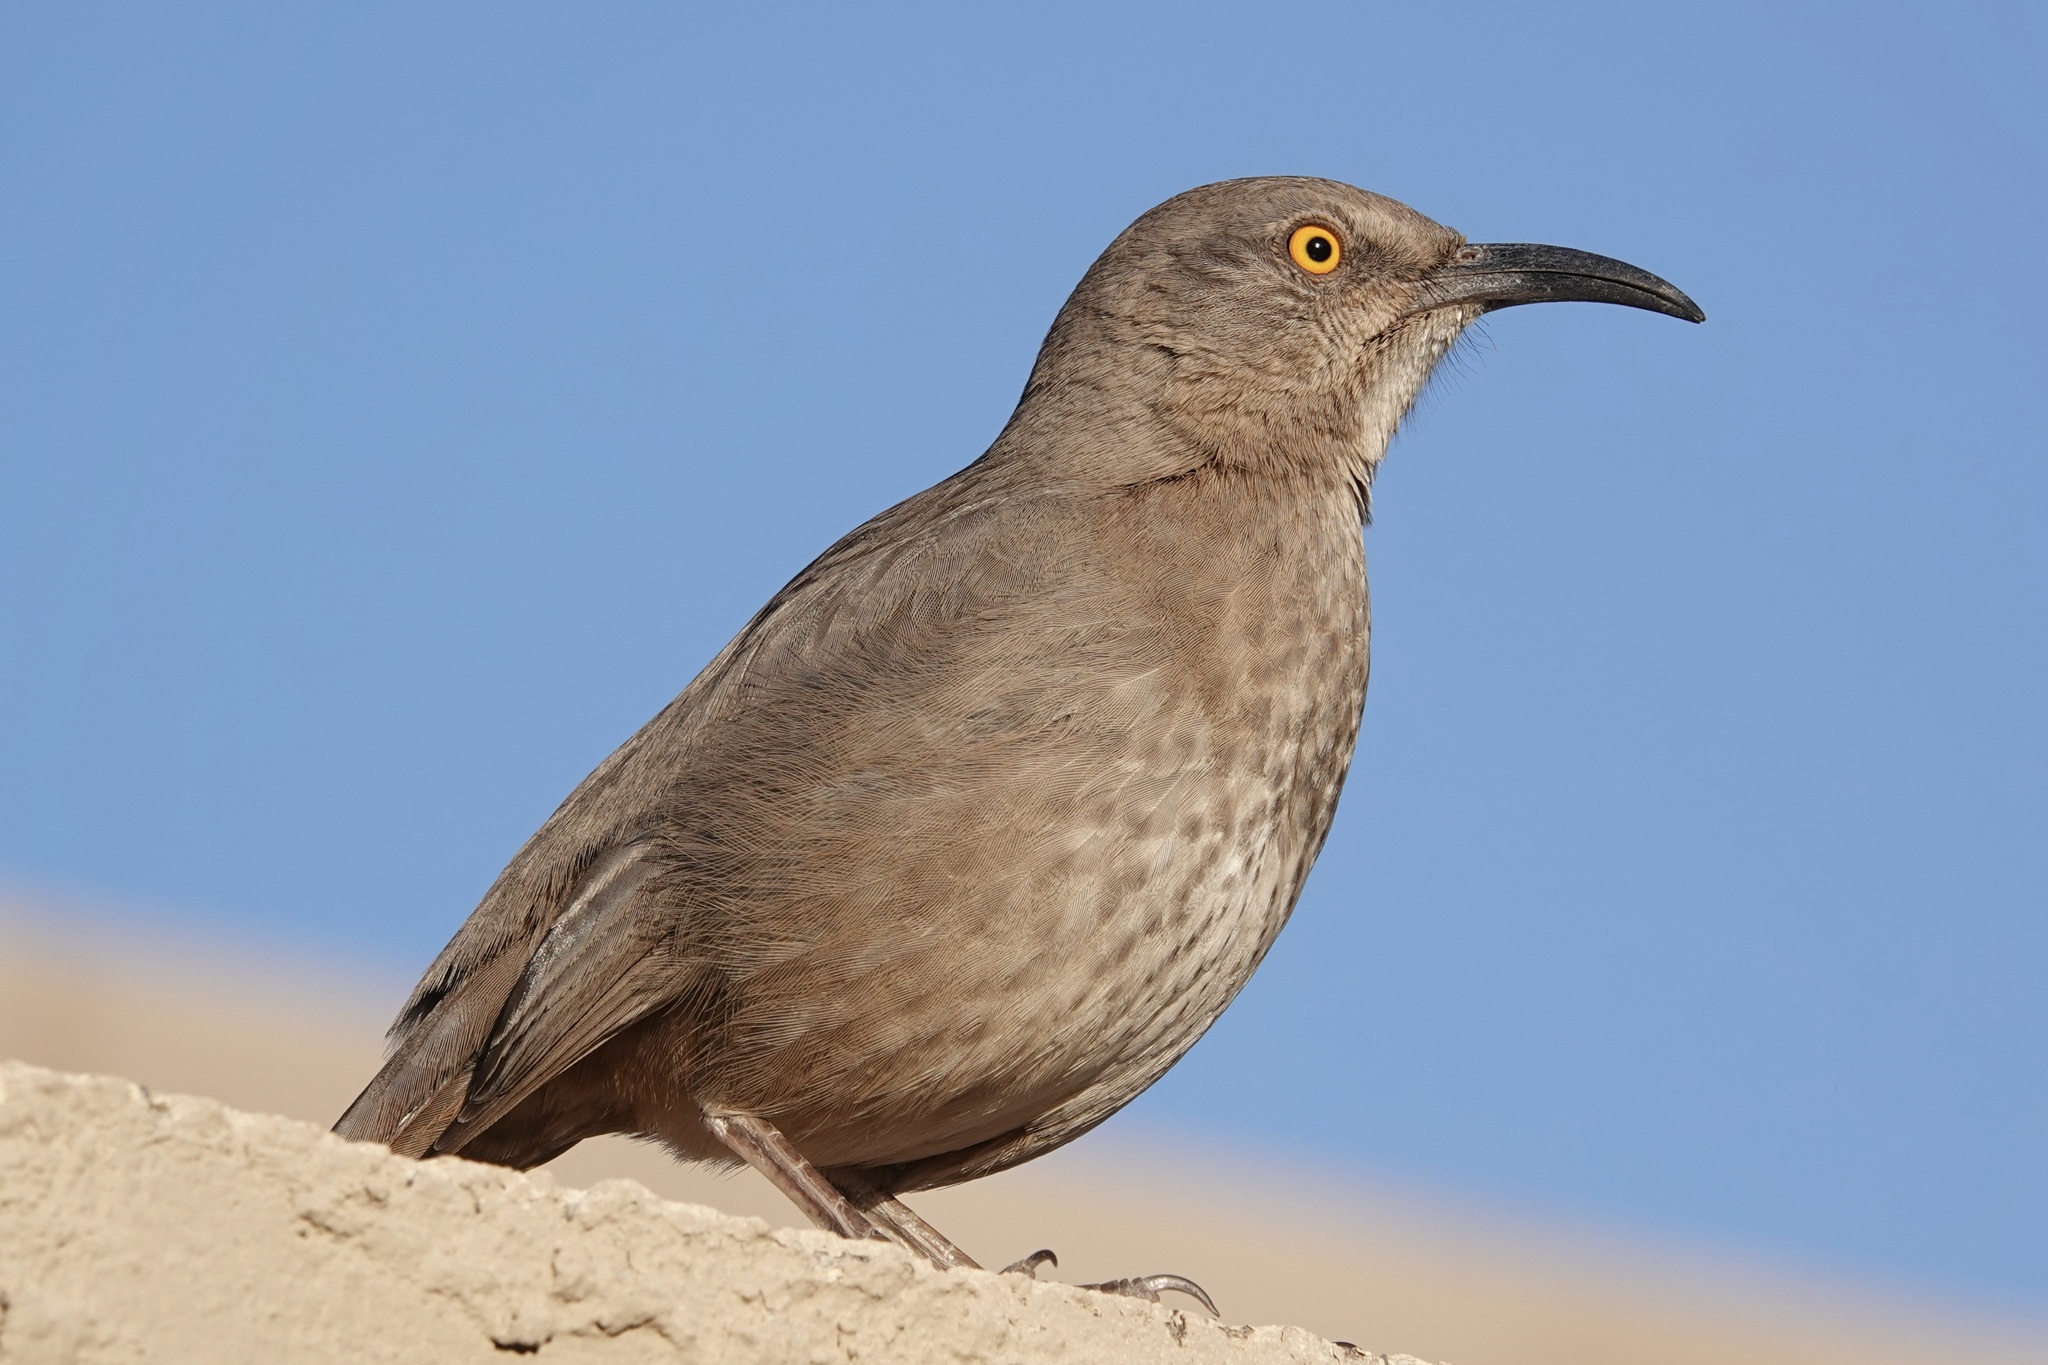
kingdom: Animalia
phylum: Chordata
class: Aves
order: Passeriformes
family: Mimidae
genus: Toxostoma
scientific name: Toxostoma curvirostre
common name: Curve-billed thrasher
